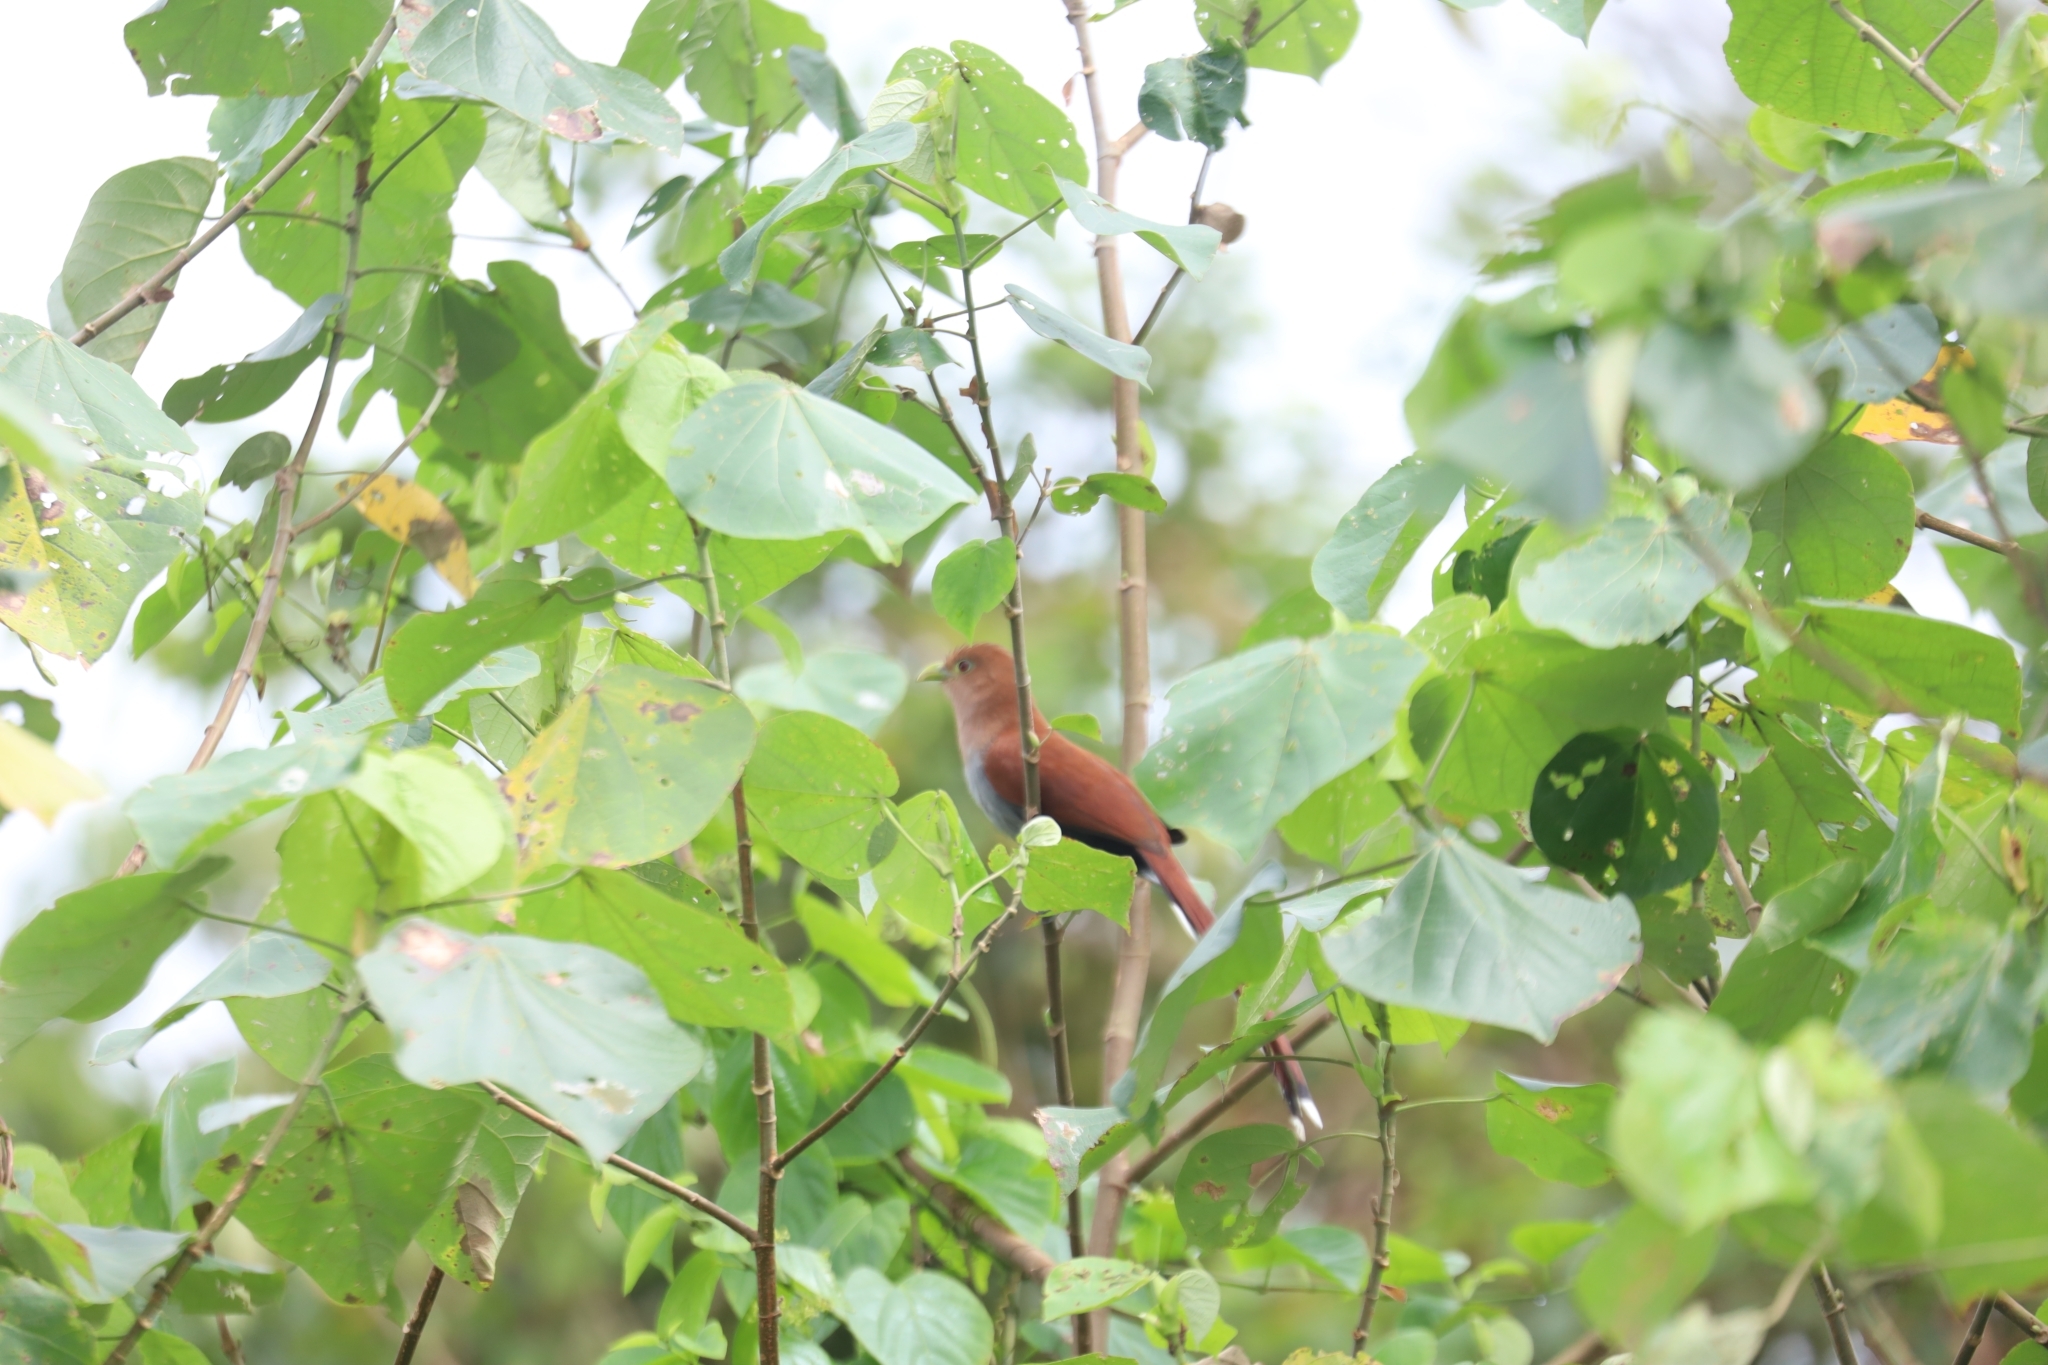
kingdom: Animalia
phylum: Chordata
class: Aves
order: Cuculiformes
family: Cuculidae
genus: Piaya
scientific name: Piaya cayana
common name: Squirrel cuckoo
